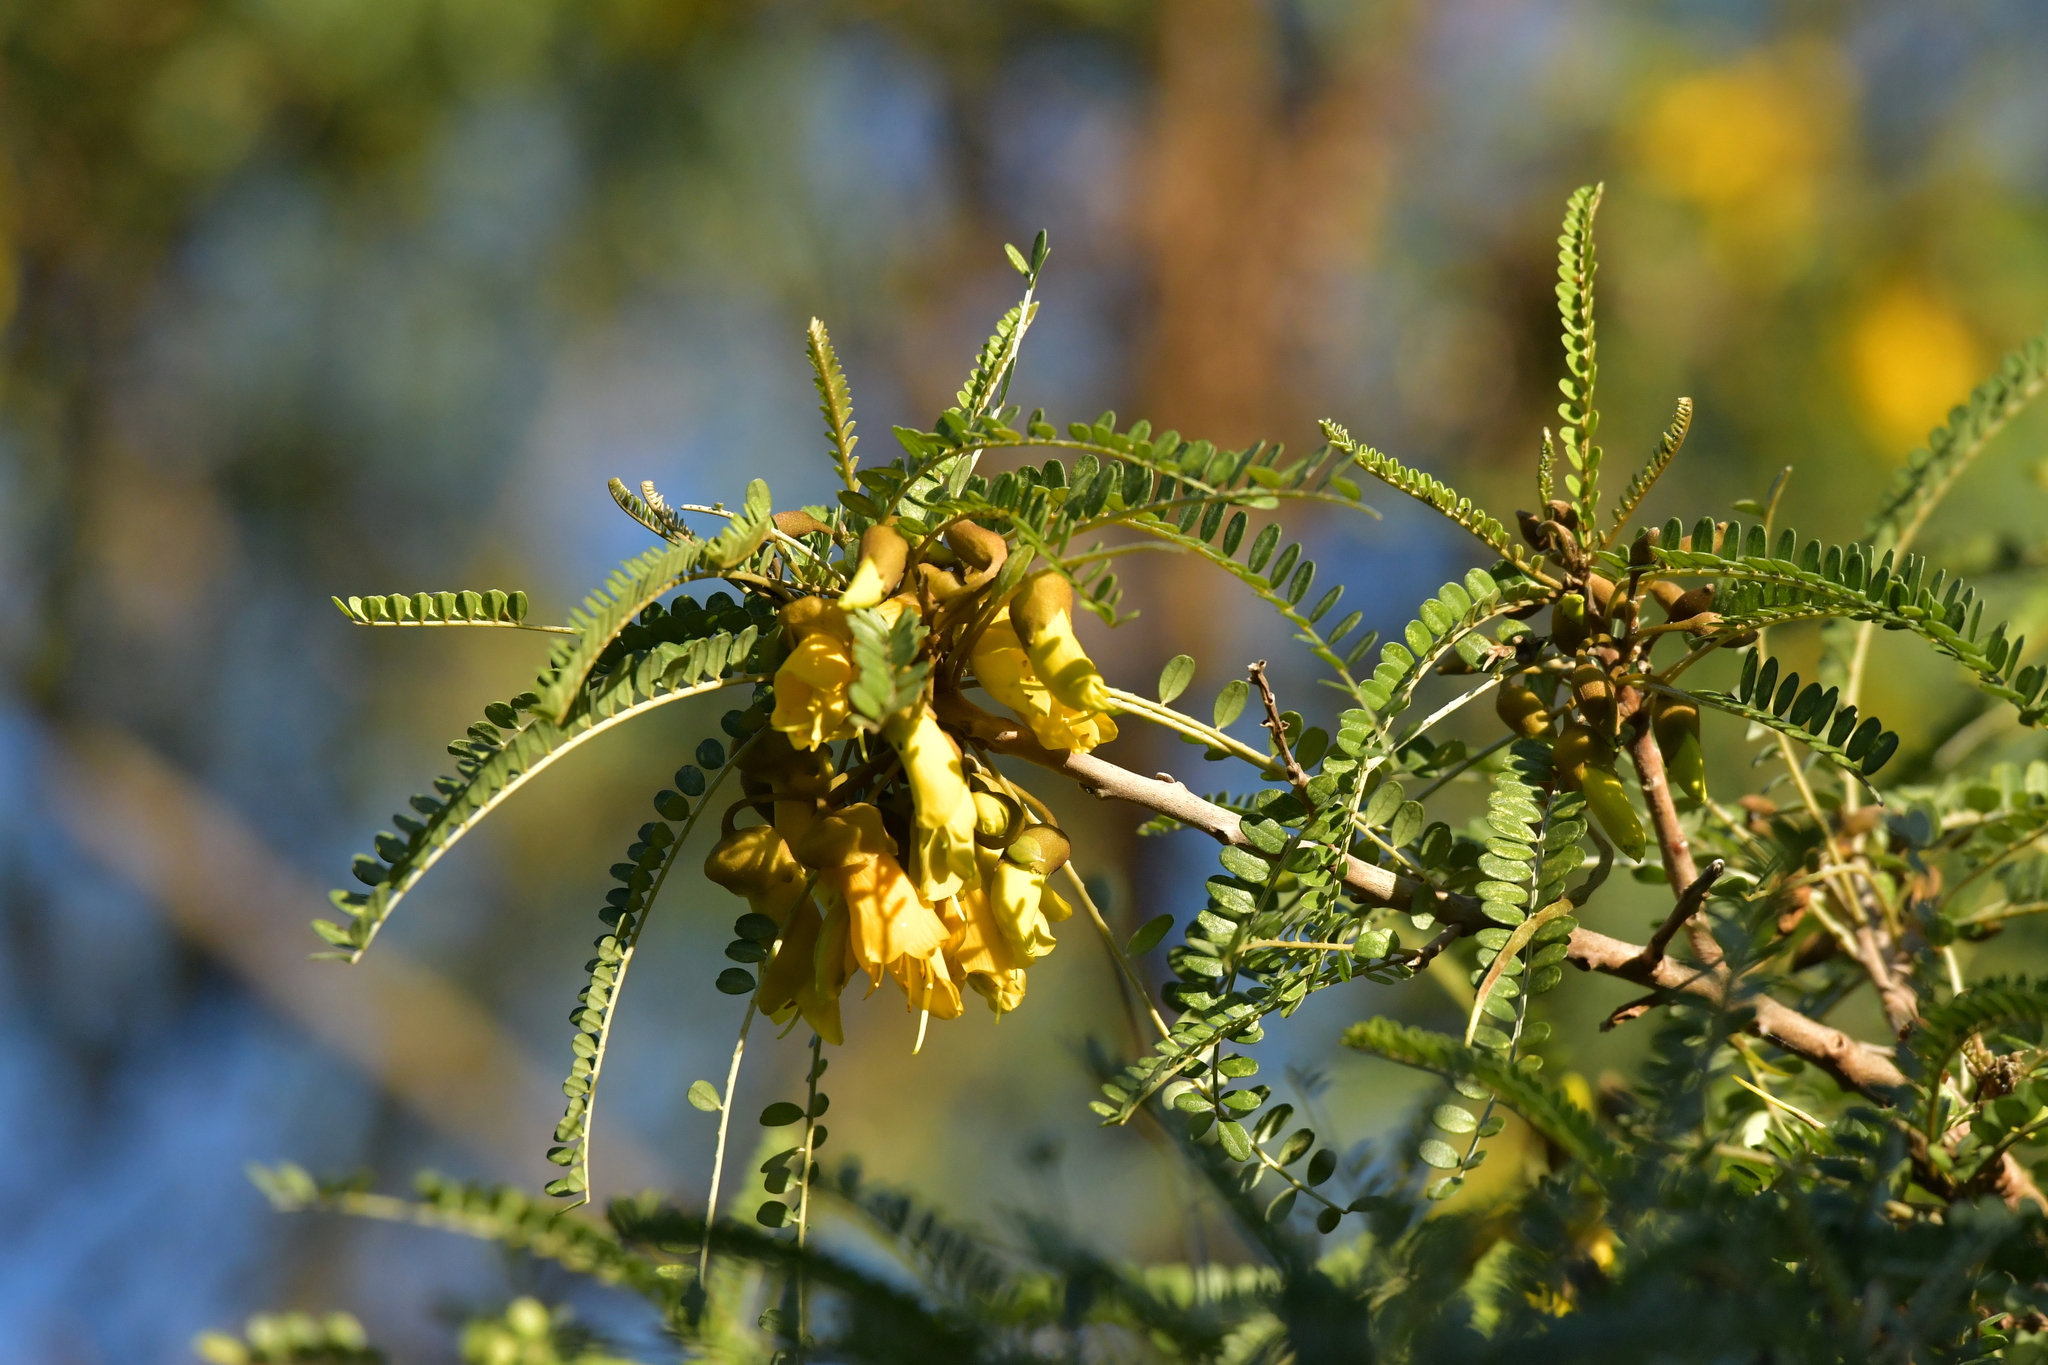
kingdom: Plantae
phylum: Tracheophyta
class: Magnoliopsida
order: Fabales
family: Fabaceae
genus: Sophora
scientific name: Sophora microphylla
